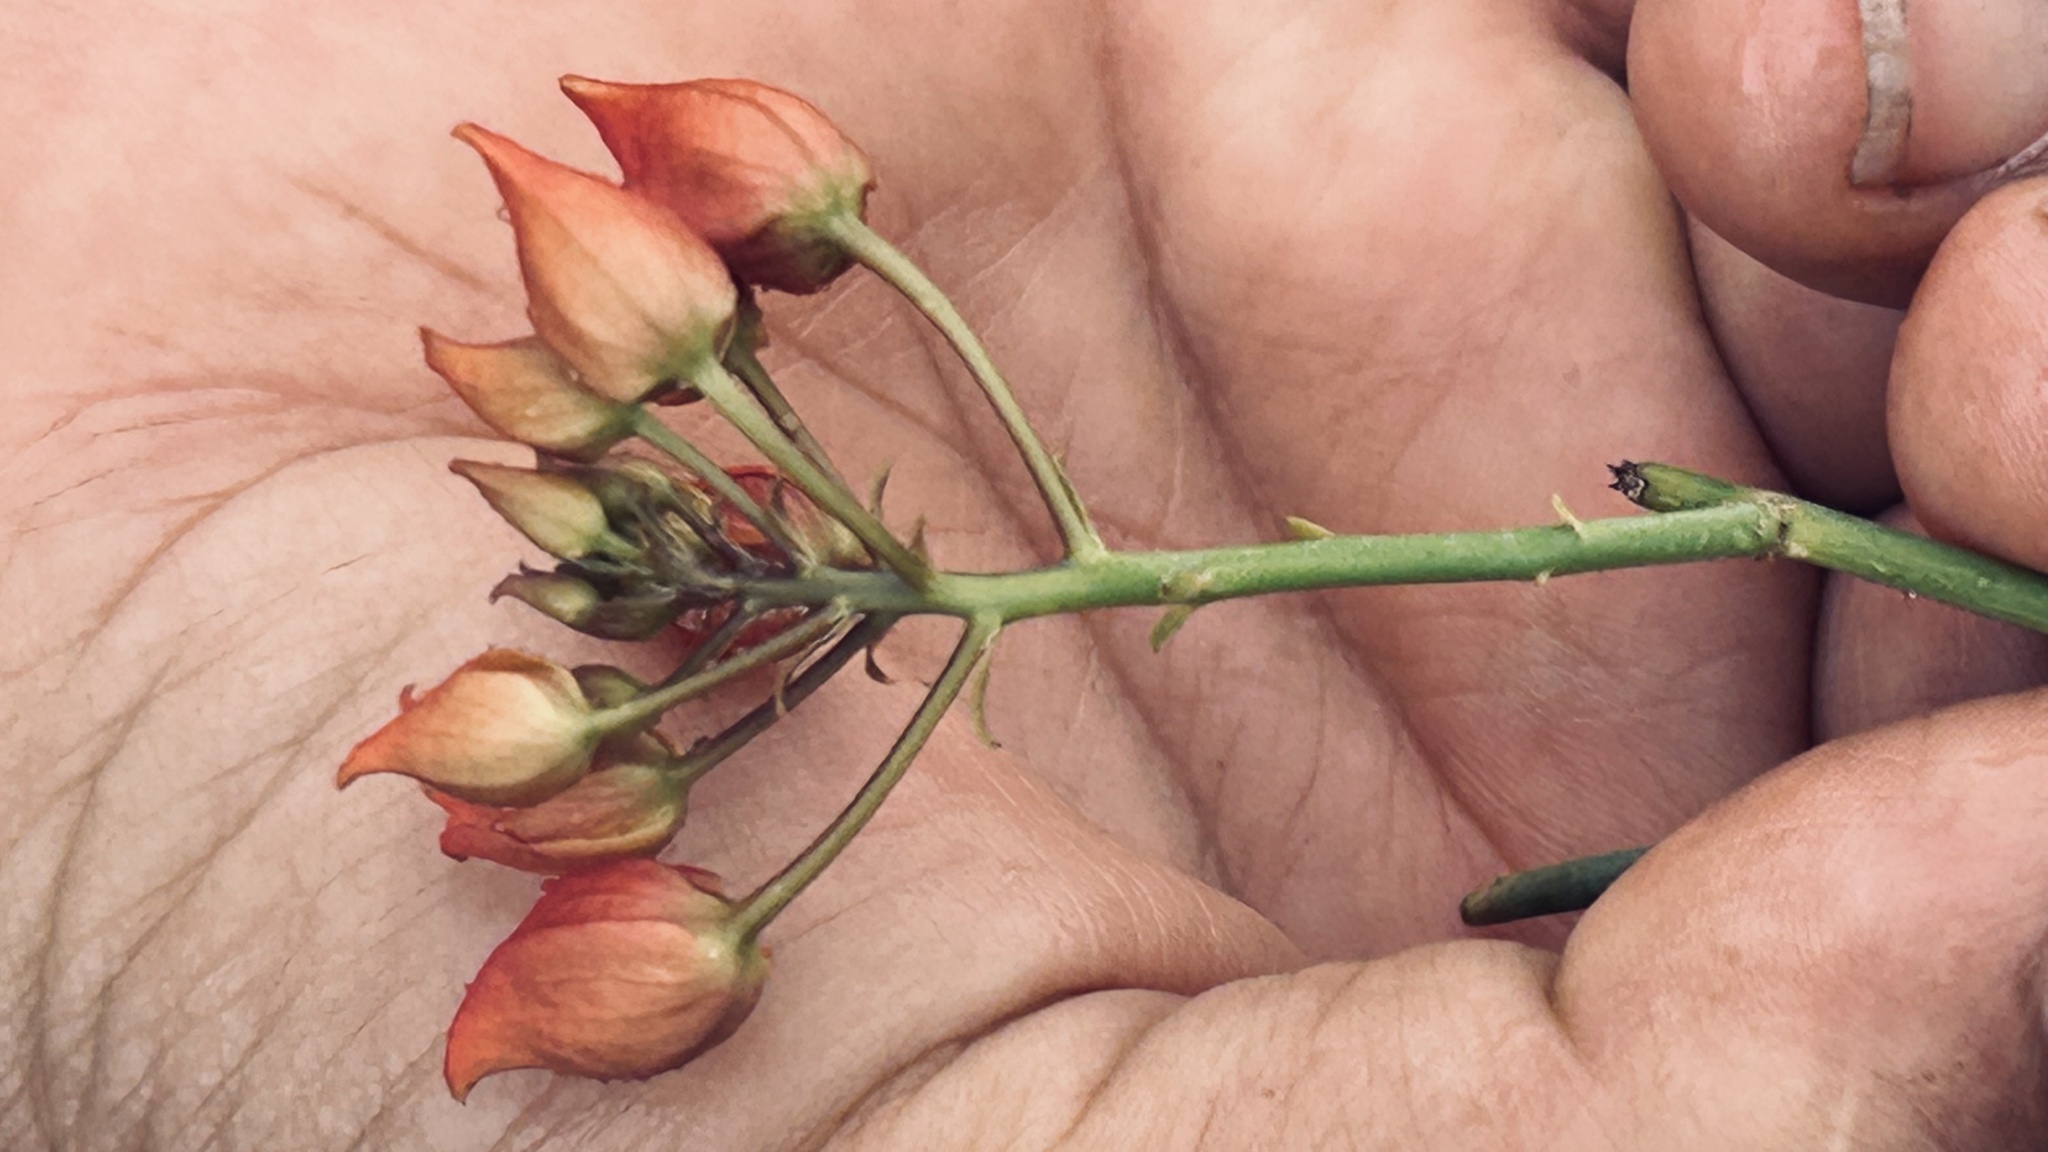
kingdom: Plantae
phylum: Tracheophyta
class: Magnoliopsida
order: Brassicales
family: Capparaceae
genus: Cadaba
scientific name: Cadaba aphylla
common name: Black storm
